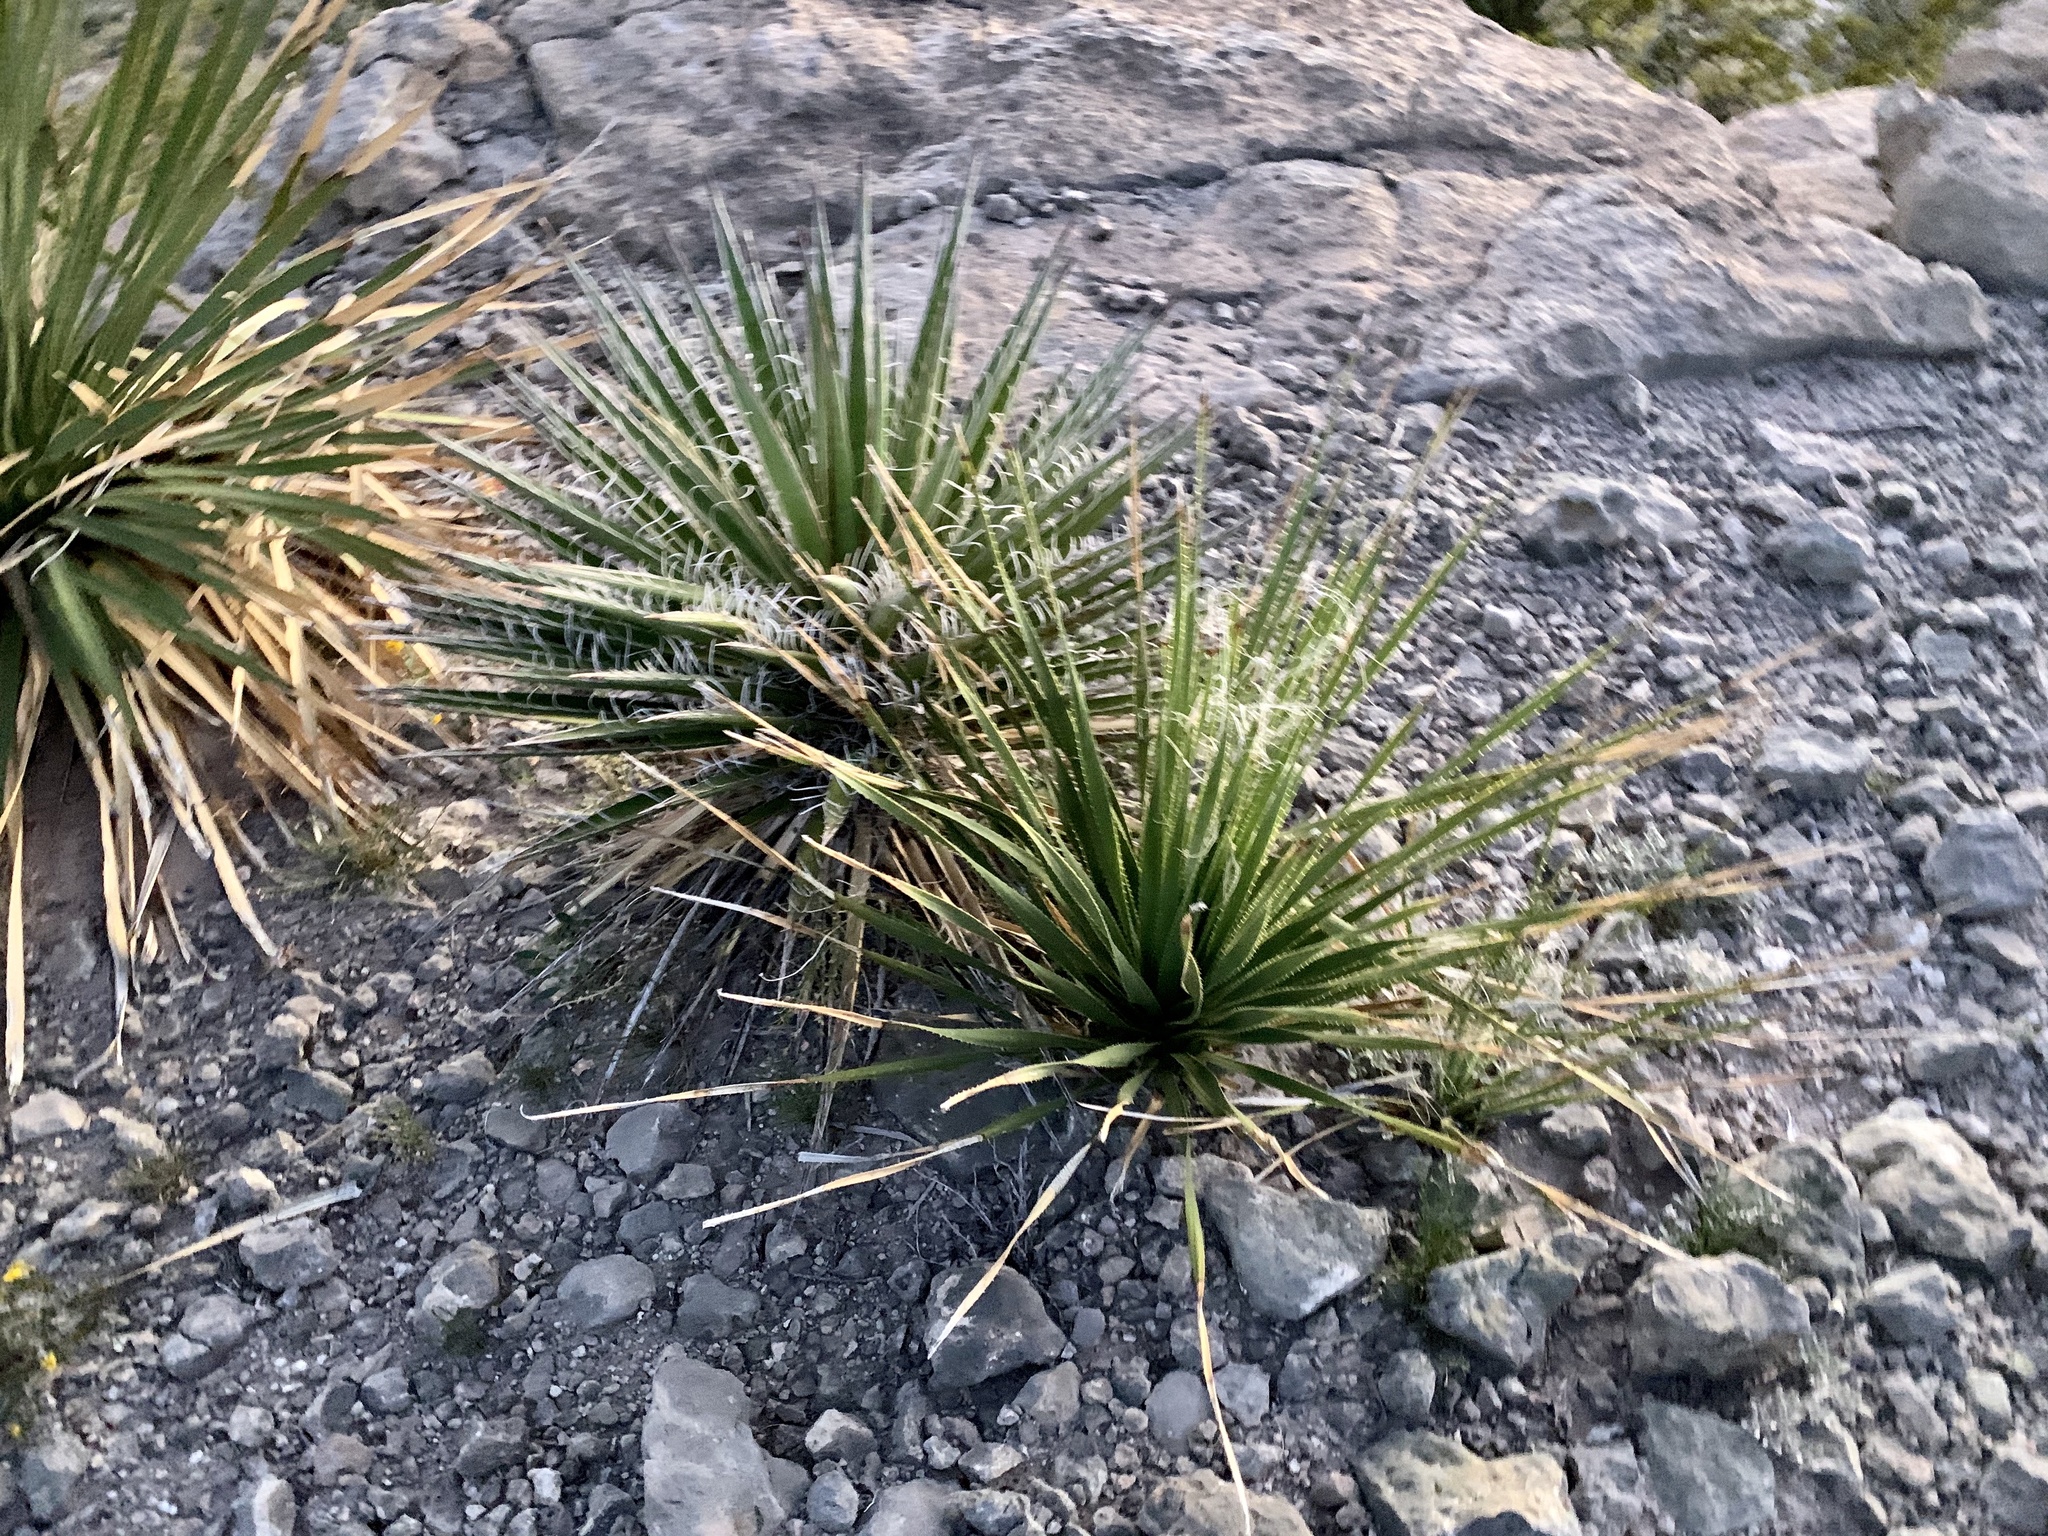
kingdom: Plantae
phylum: Tracheophyta
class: Liliopsida
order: Asparagales
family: Asparagaceae
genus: Dasylirion
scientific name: Dasylirion wheeleri
